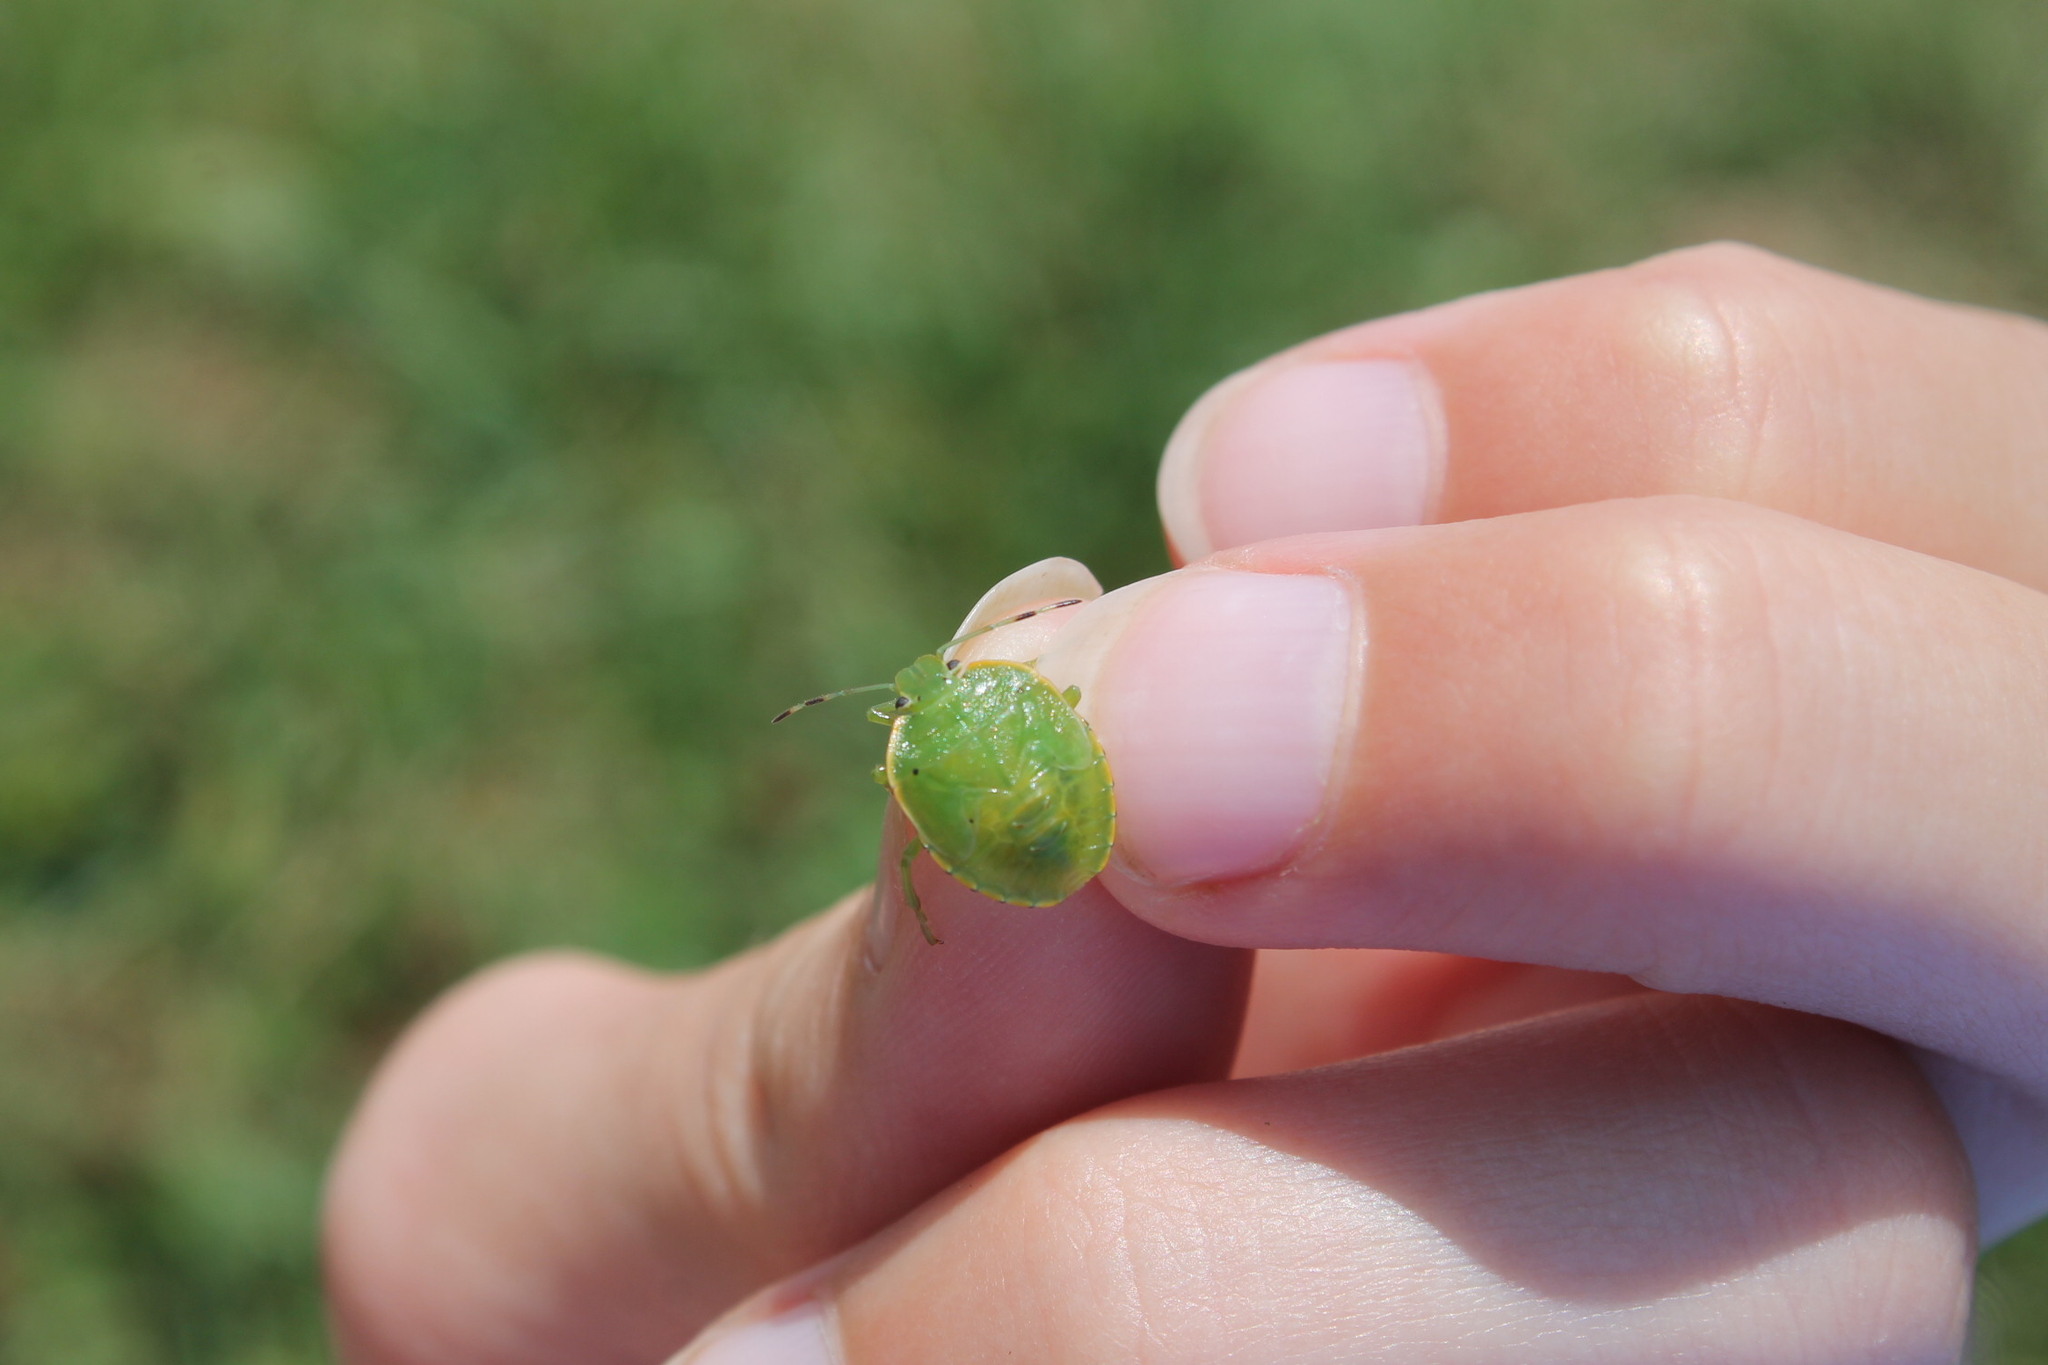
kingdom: Animalia
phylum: Arthropoda
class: Insecta
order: Hemiptera
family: Pentatomidae
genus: Chinavia
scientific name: Chinavia hilaris
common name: Green stink bug
